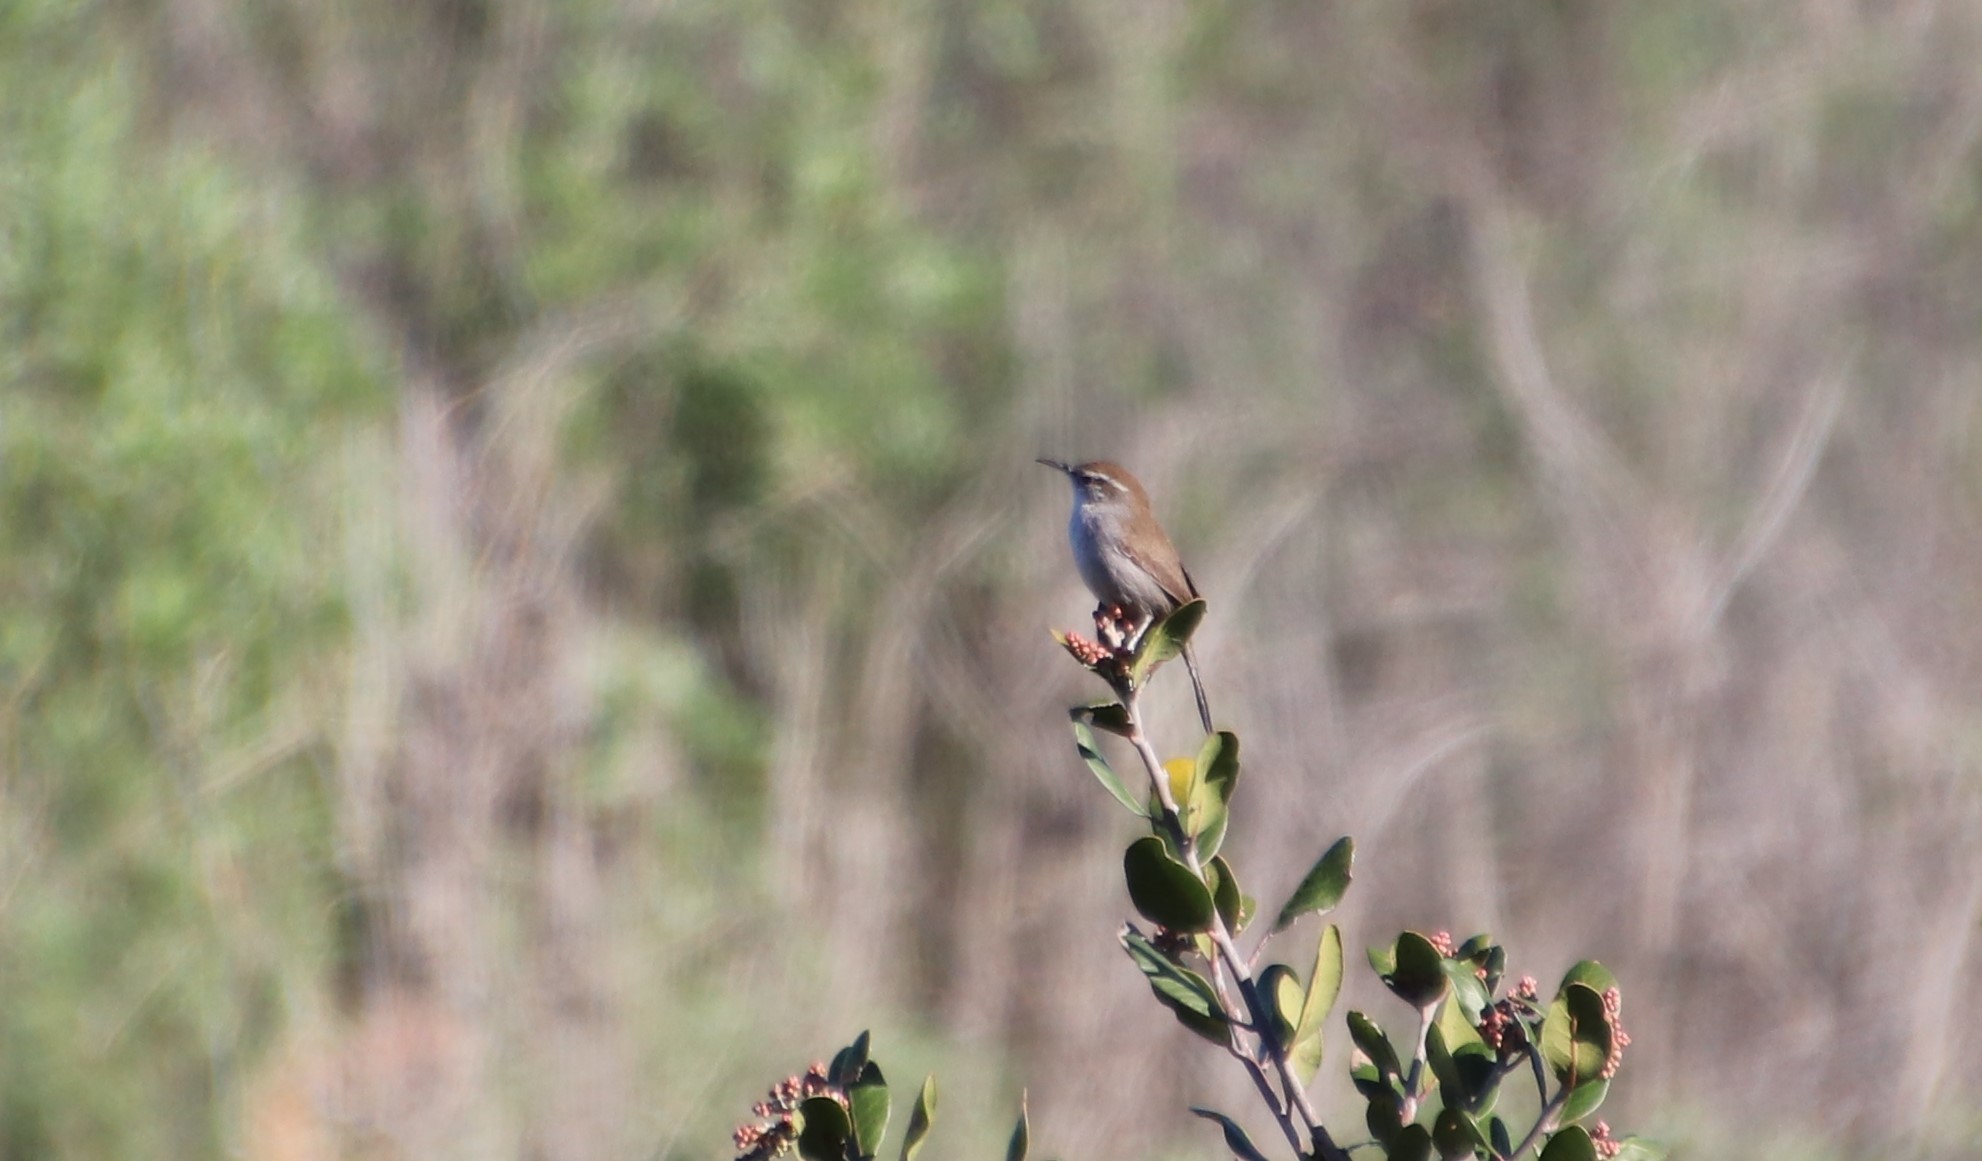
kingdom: Animalia
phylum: Chordata
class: Aves
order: Passeriformes
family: Troglodytidae
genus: Thryomanes
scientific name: Thryomanes bewickii
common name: Bewick's wren
